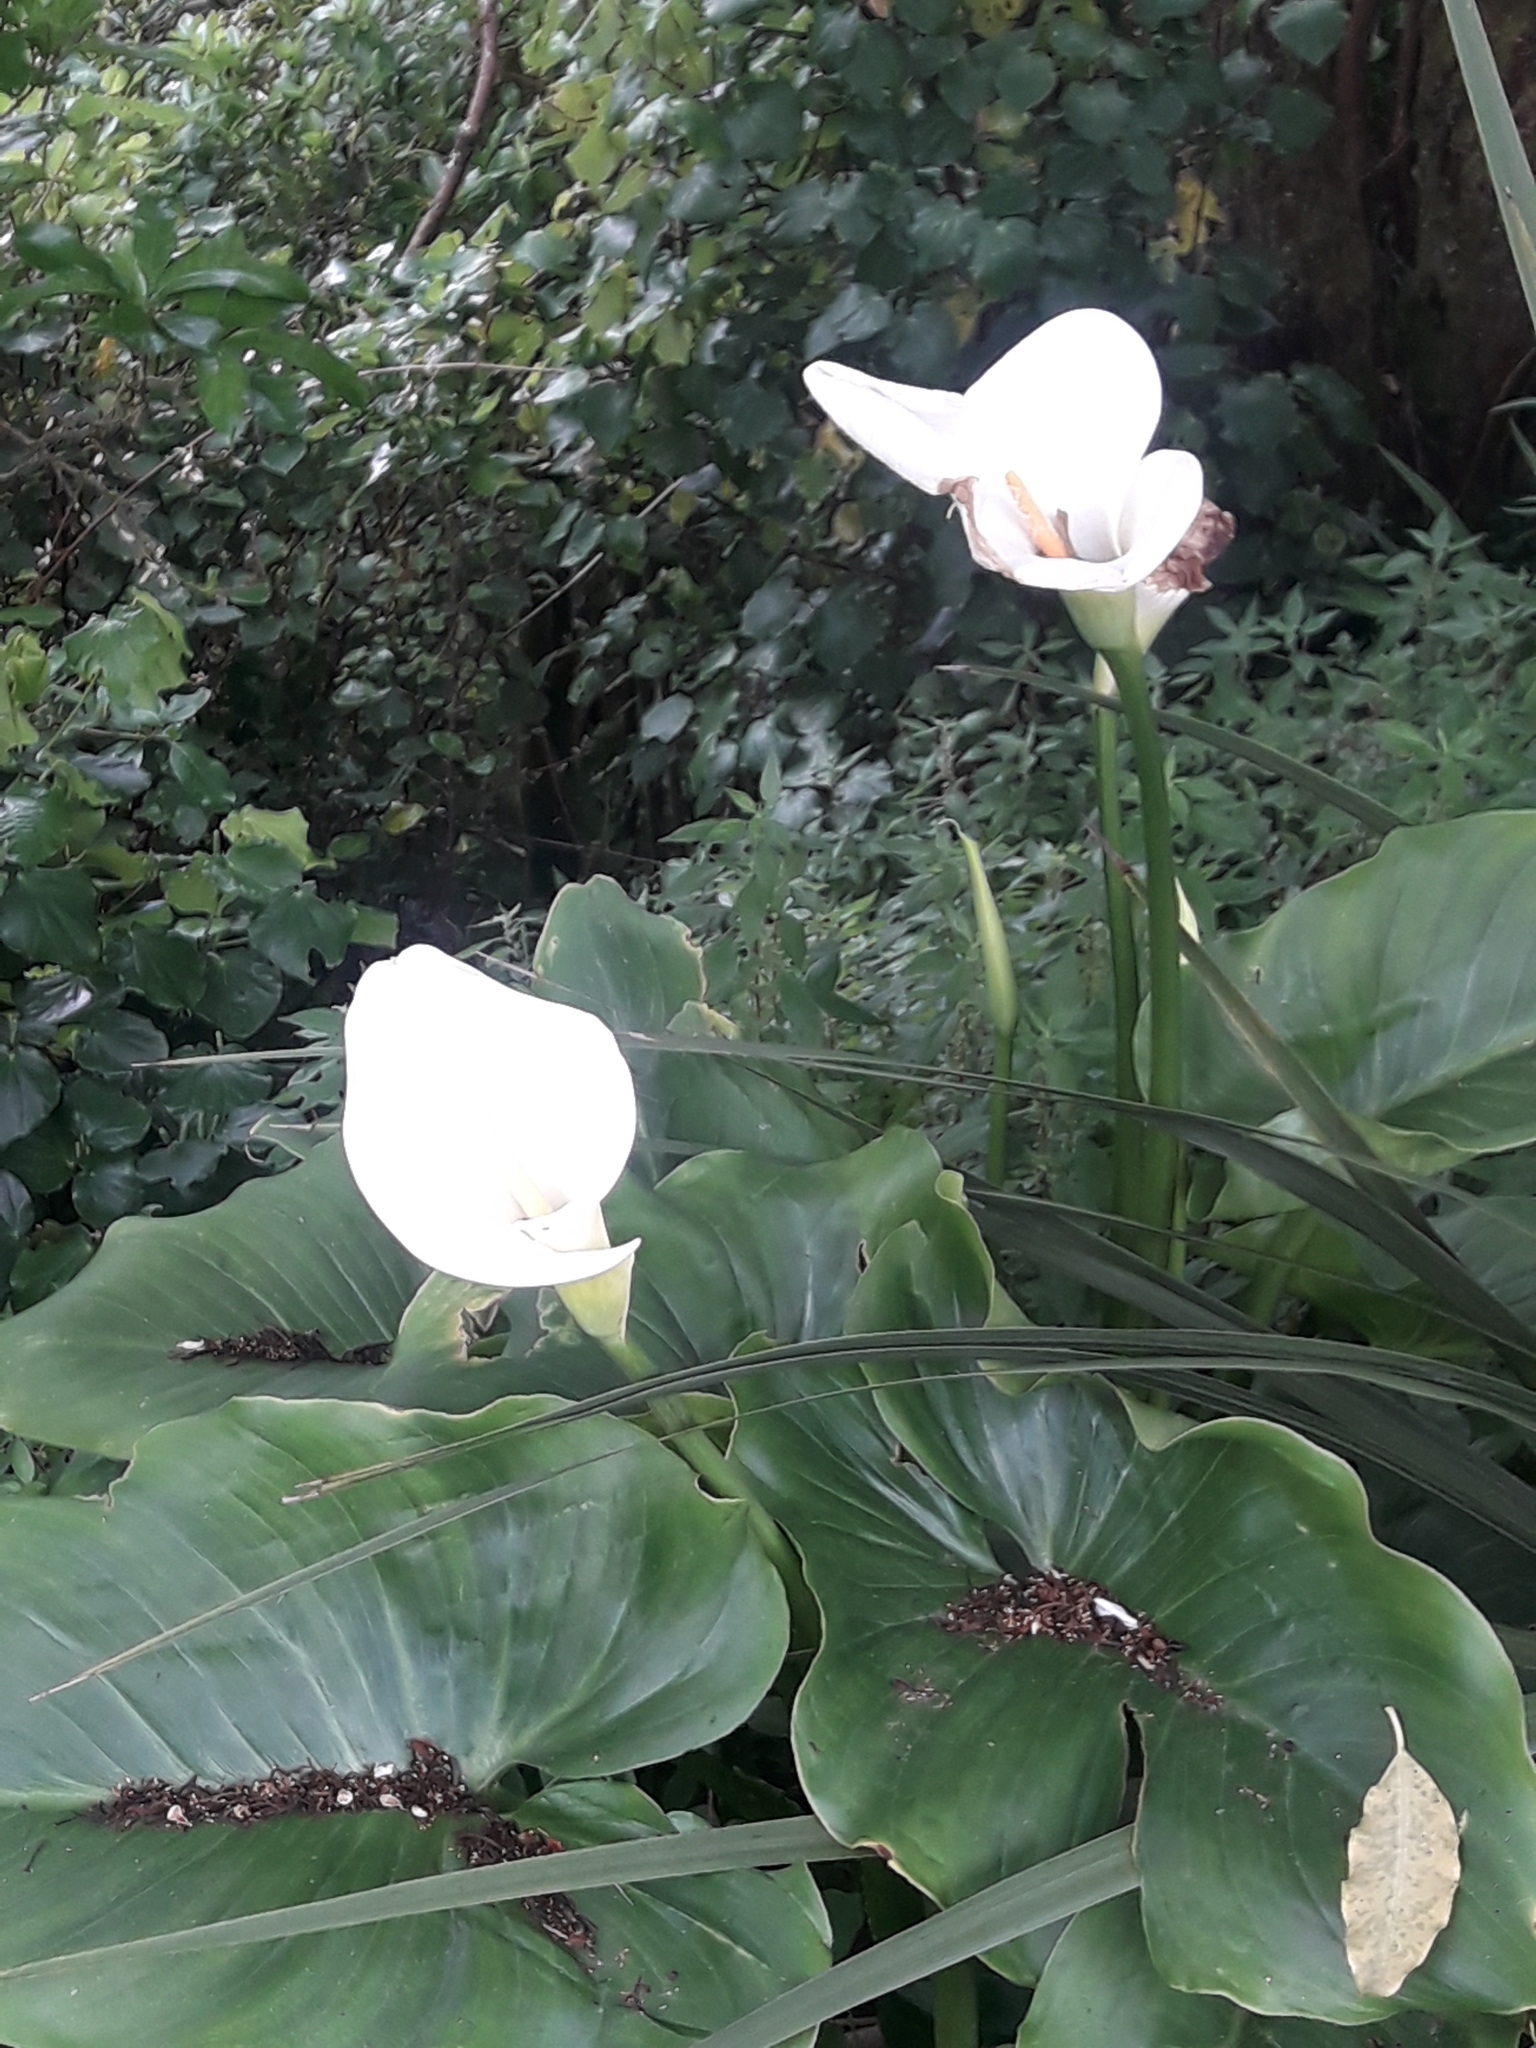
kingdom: Plantae
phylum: Tracheophyta
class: Liliopsida
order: Alismatales
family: Araceae
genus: Zantedeschia
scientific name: Zantedeschia aethiopica
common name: Altar-lily
